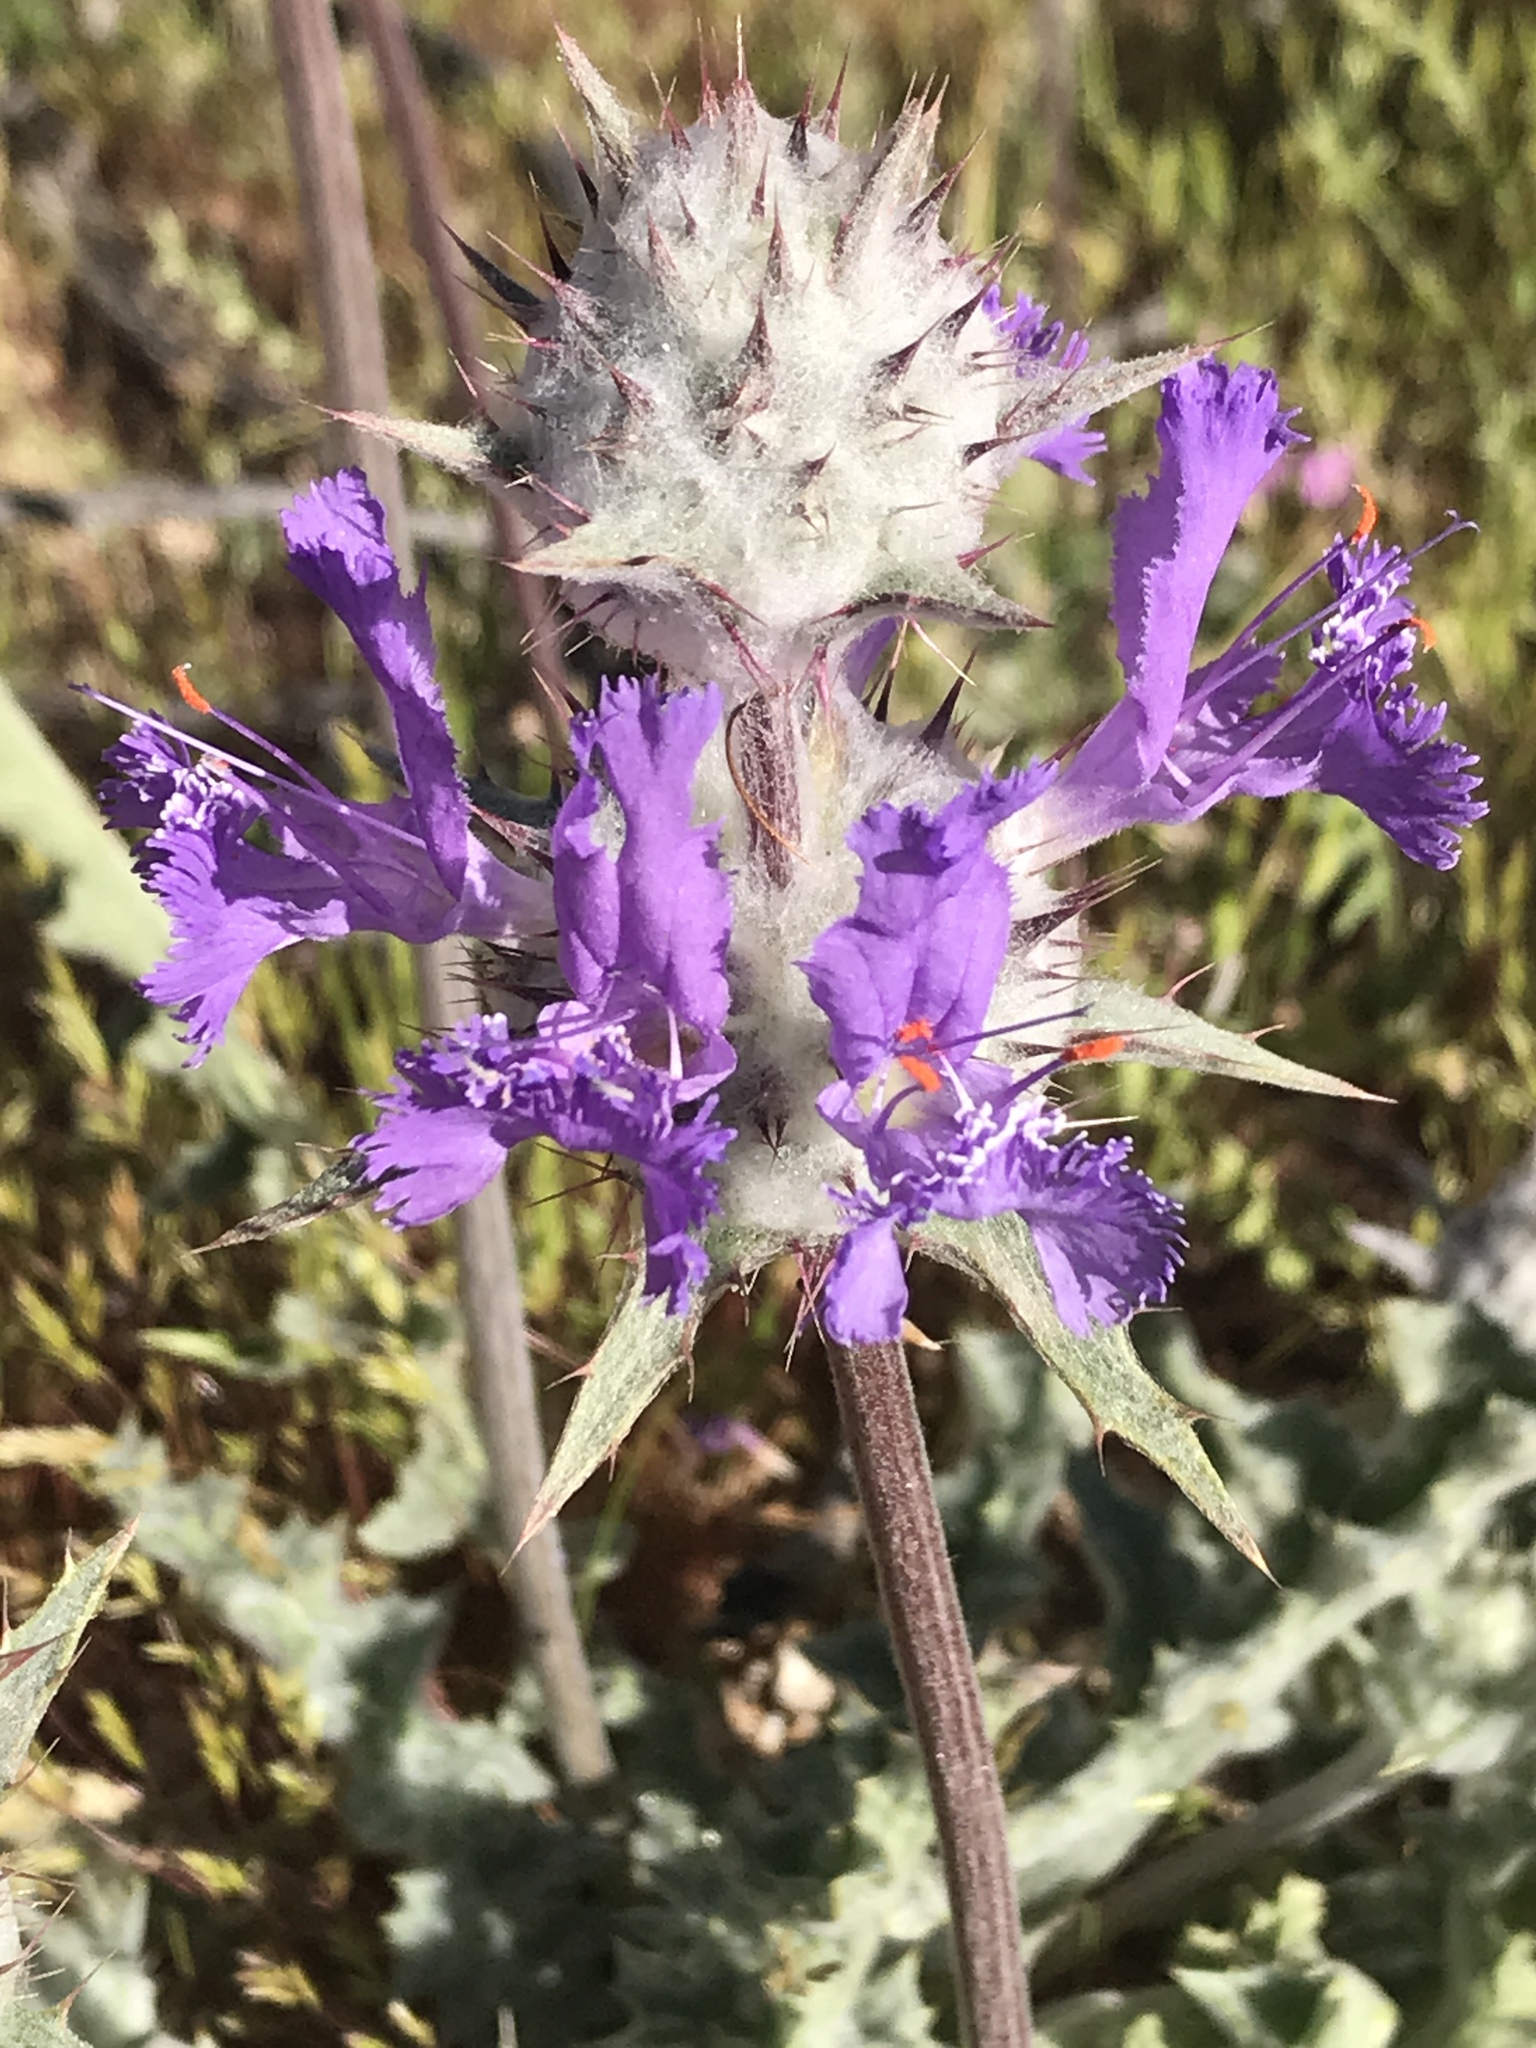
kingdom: Plantae
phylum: Tracheophyta
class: Magnoliopsida
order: Lamiales
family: Lamiaceae
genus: Salvia
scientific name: Salvia carduacea
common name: Thistle sage
